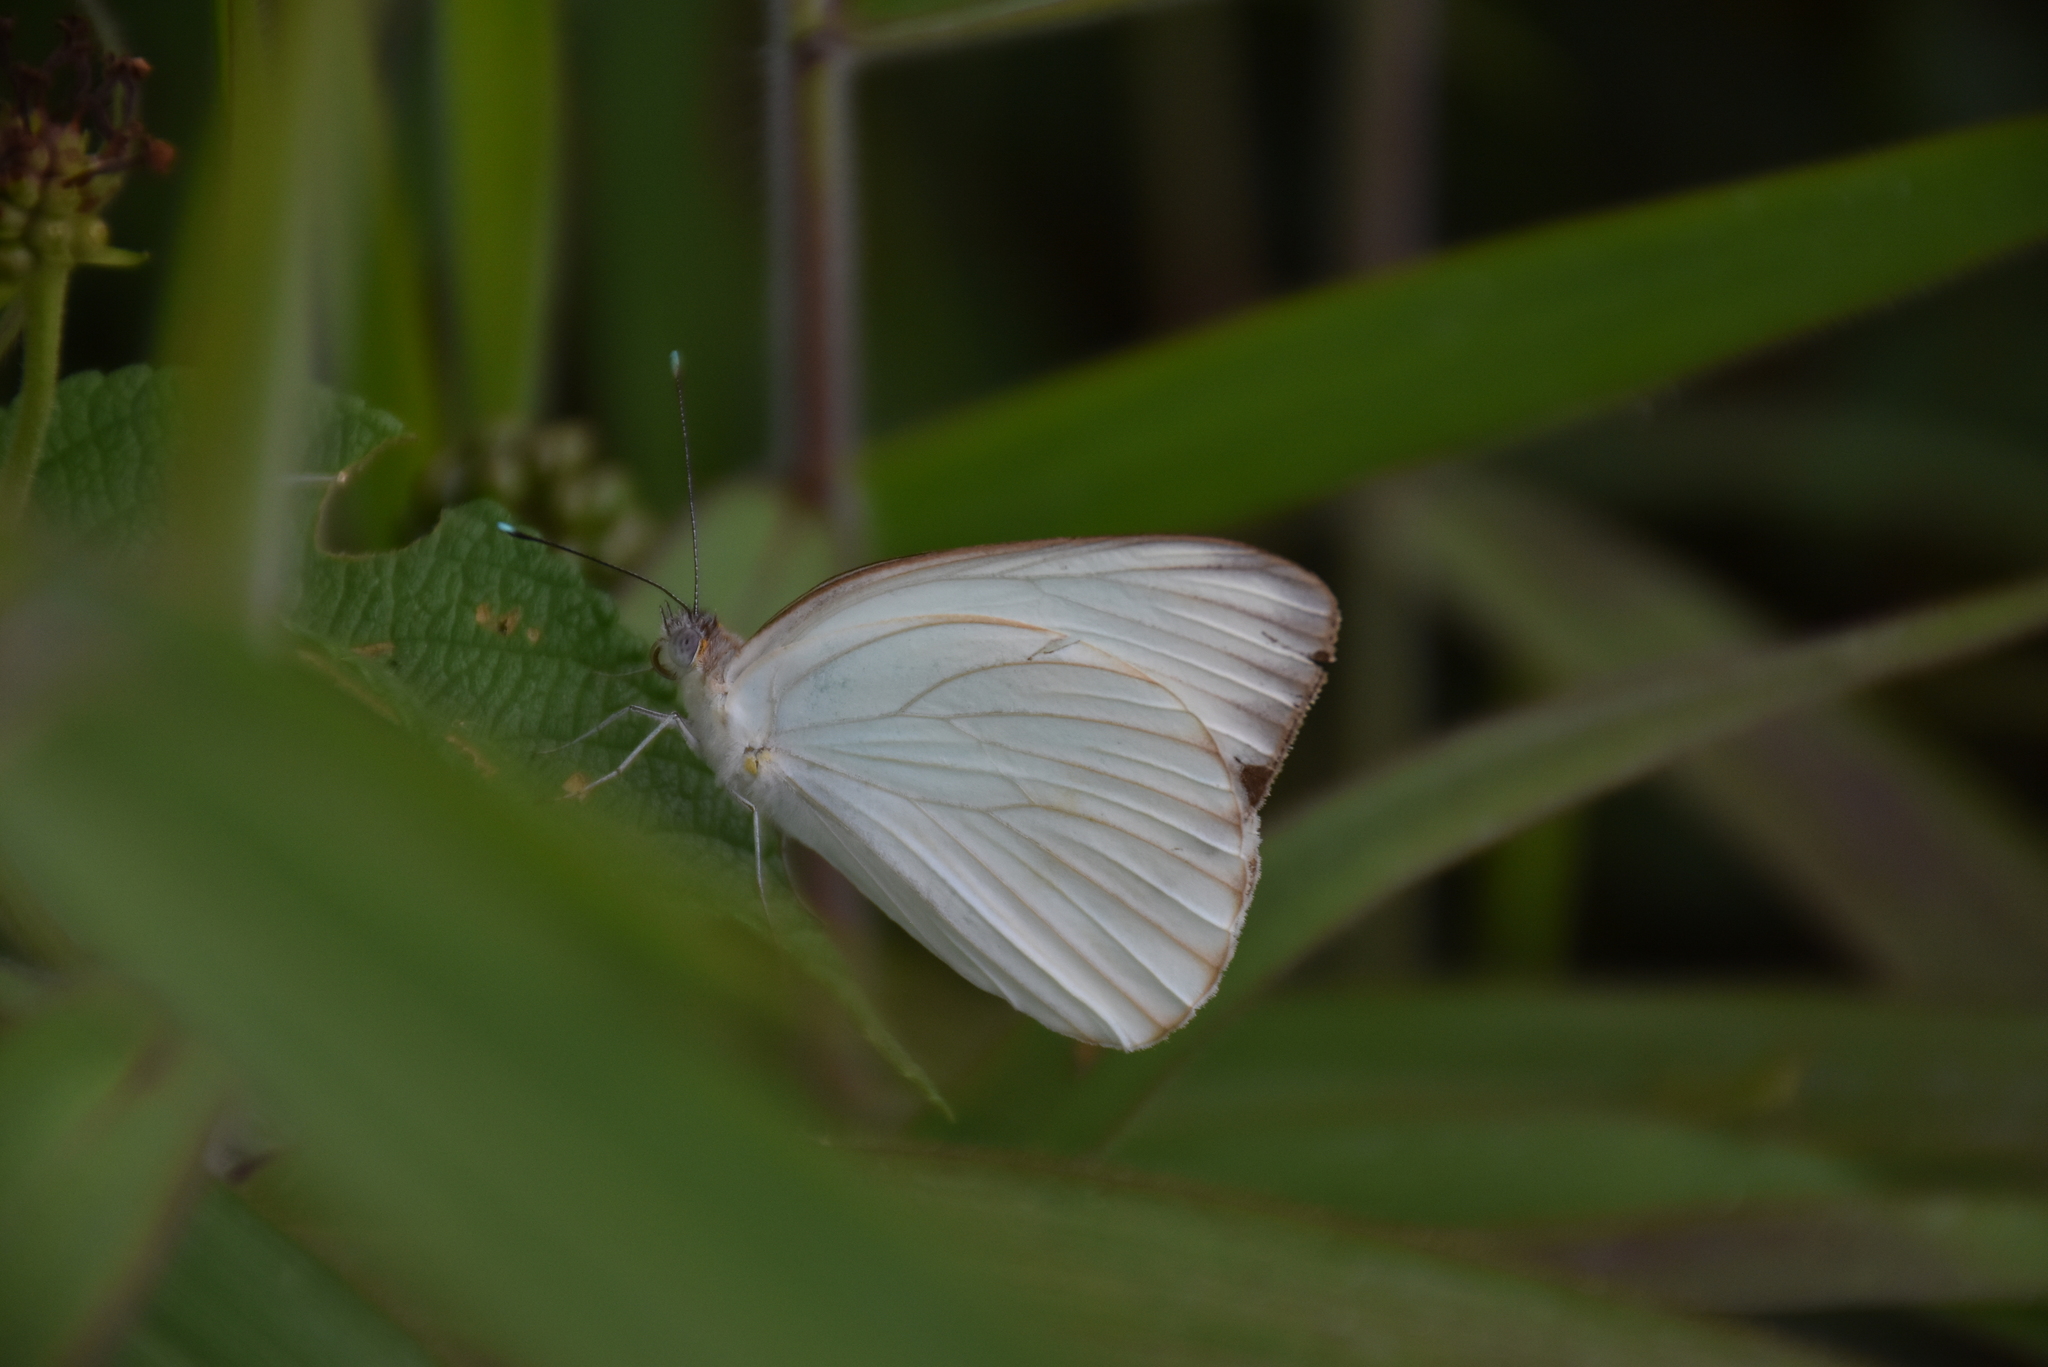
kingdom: Animalia
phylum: Arthropoda
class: Insecta
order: Lepidoptera
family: Pieridae
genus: Ascia
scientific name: Ascia monuste
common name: Great southern white
